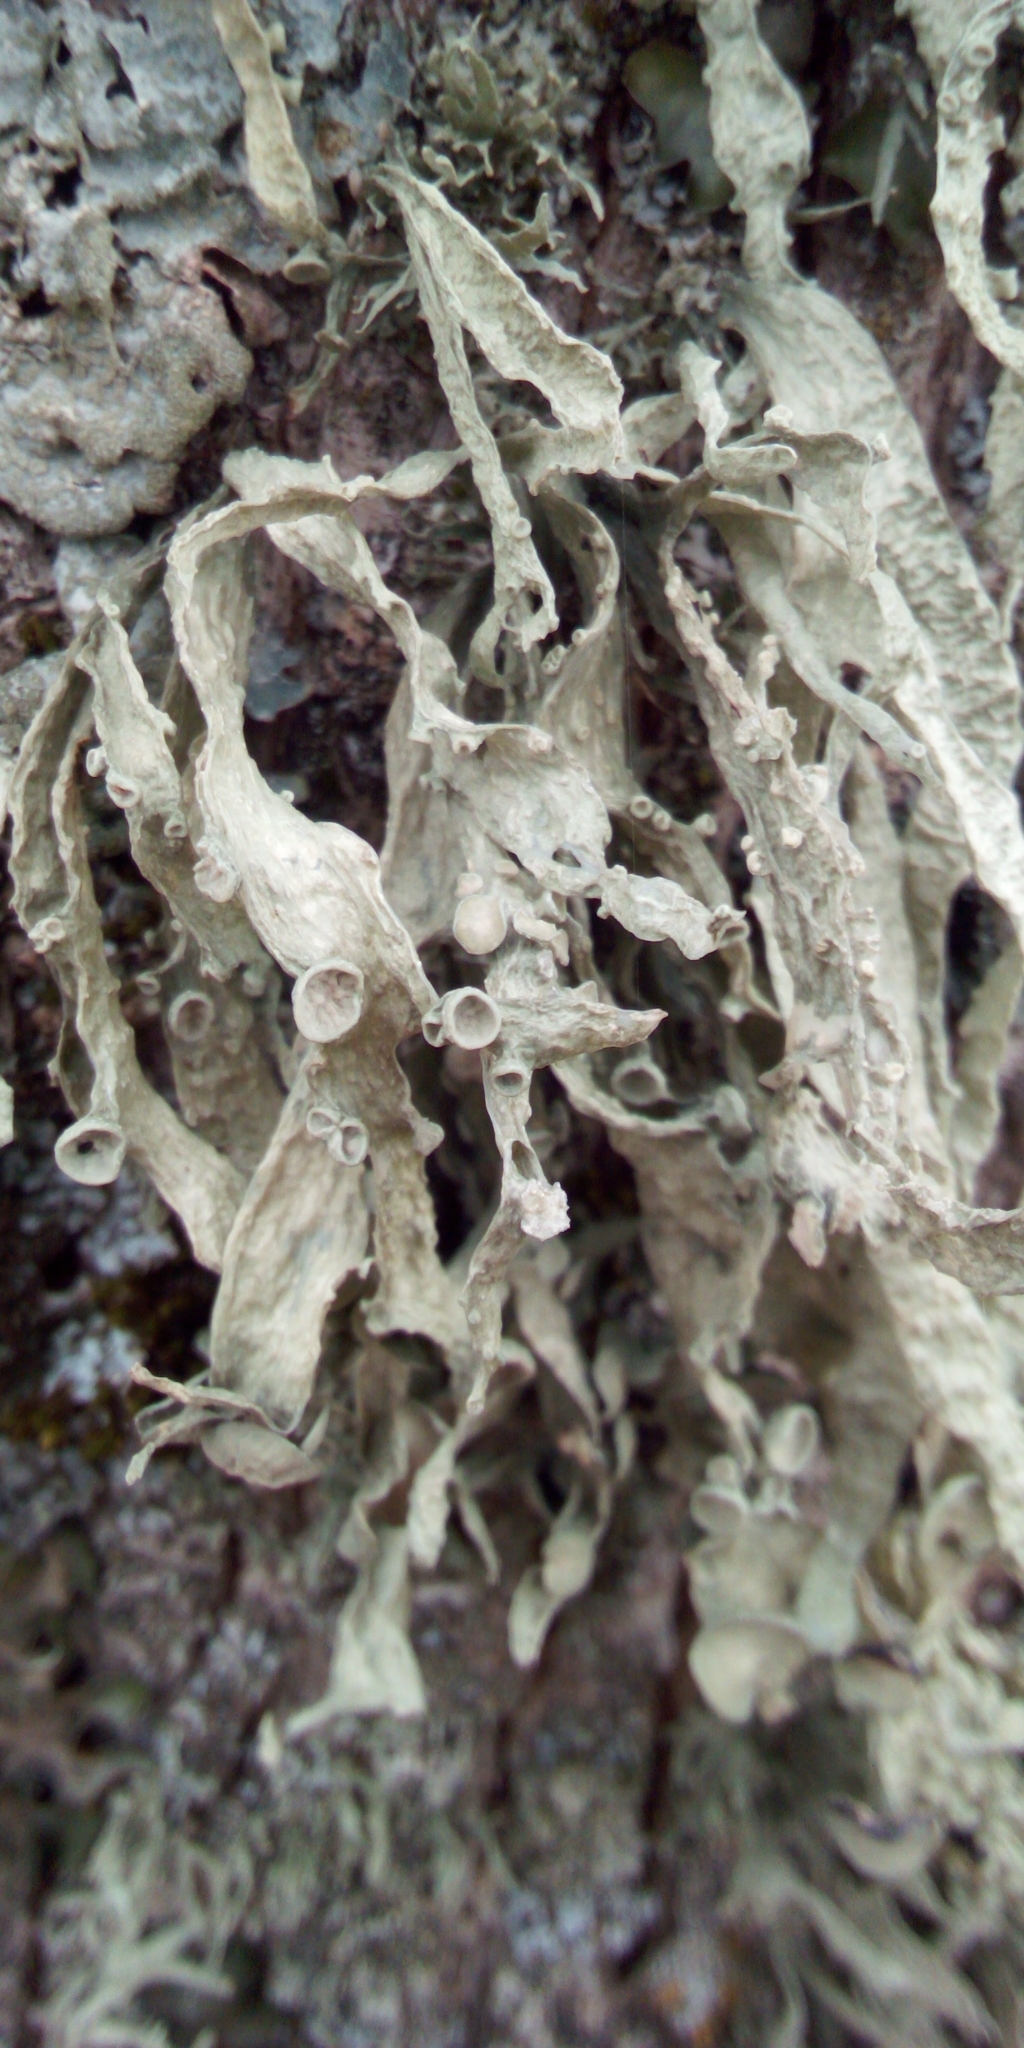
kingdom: Fungi
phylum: Ascomycota
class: Lecanoromycetes
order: Lecanorales
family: Ramalinaceae
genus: Ramalina
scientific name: Ramalina fraxinea
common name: Cartilage lichen
